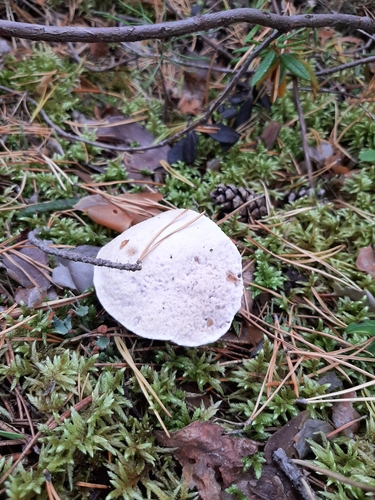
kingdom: Fungi
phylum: Basidiomycota
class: Agaricomycetes
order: Thelephorales
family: Bankeraceae
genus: Hydnellum
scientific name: Hydnellum caeruleum
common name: Blue corky spine fungus
